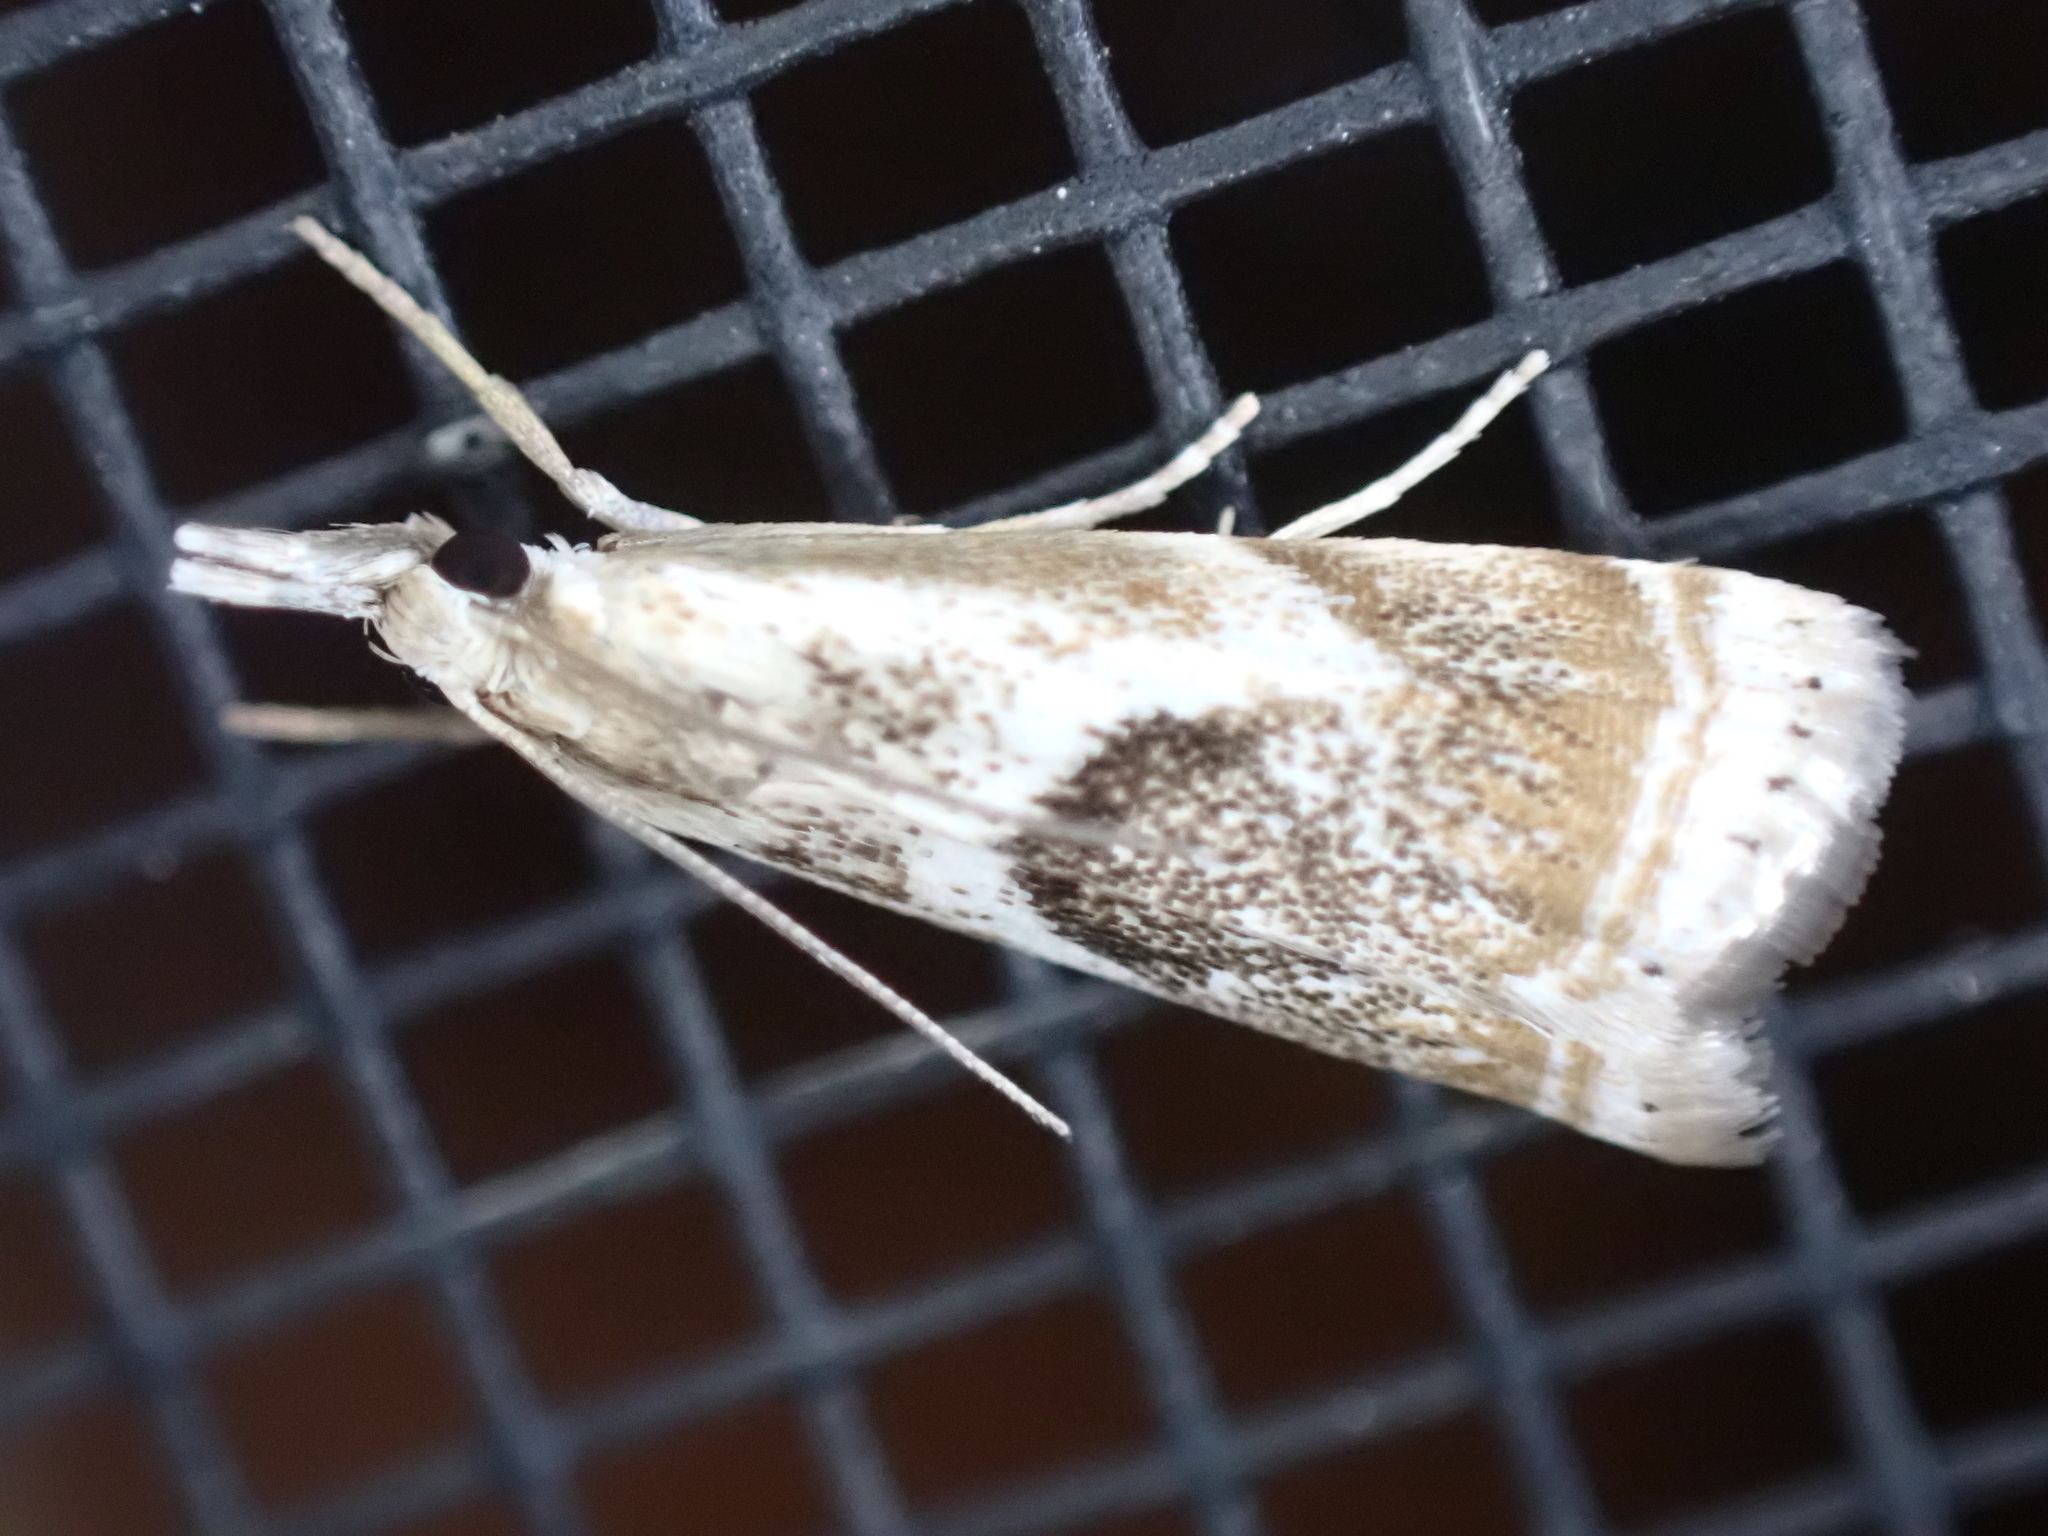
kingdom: Animalia
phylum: Arthropoda
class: Insecta
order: Lepidoptera
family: Crambidae
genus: Microcrambus
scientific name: Microcrambus elegans
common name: Elegant grass-veneer
